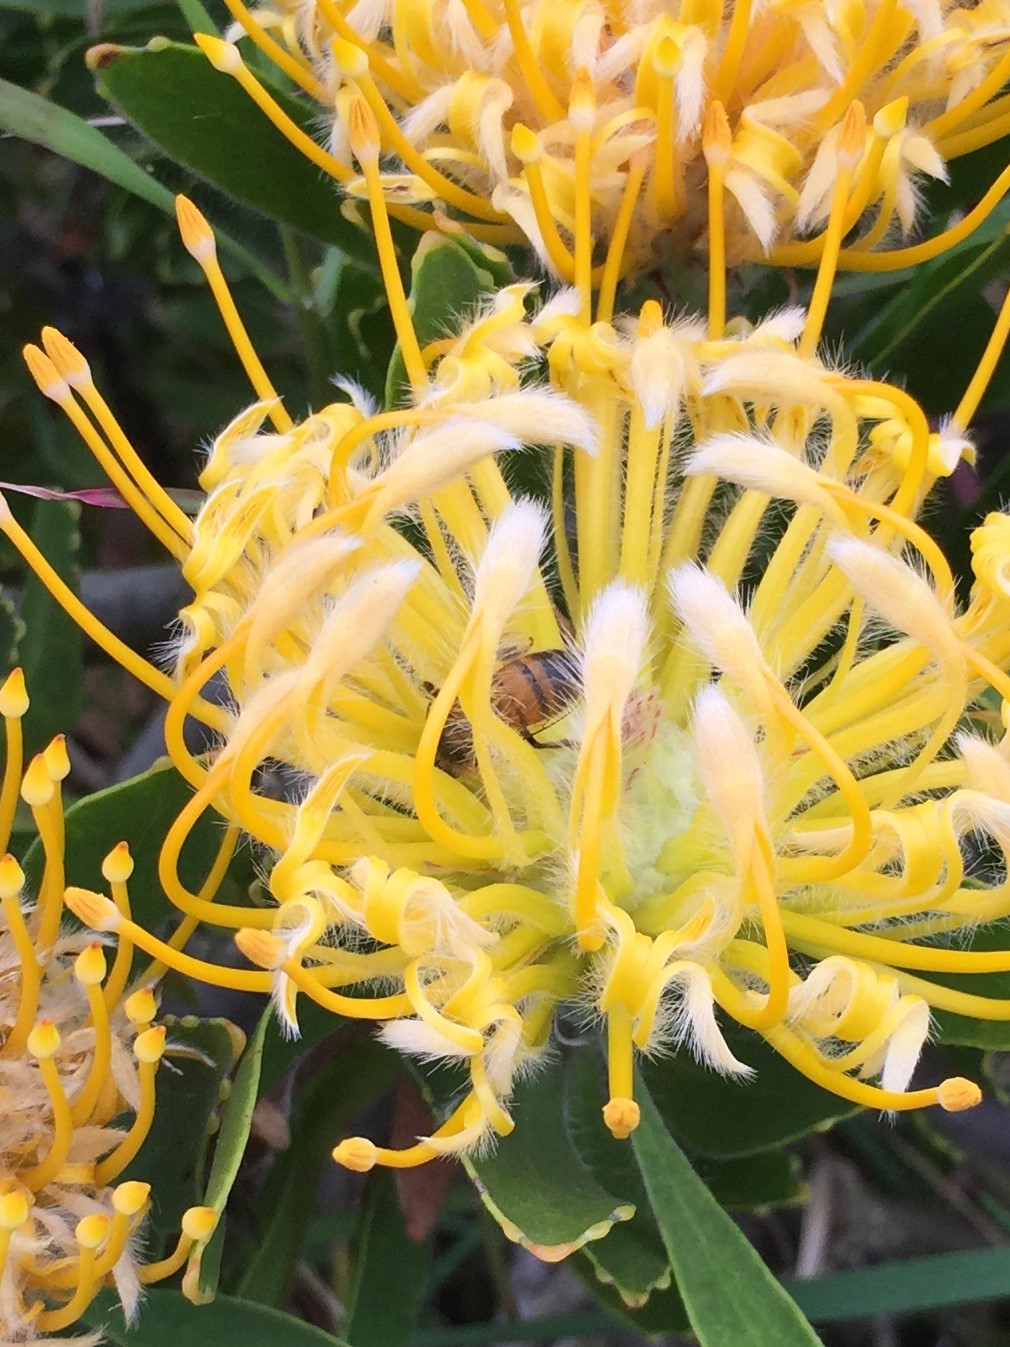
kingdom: Animalia
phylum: Arthropoda
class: Insecta
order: Hymenoptera
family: Apidae
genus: Apis
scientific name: Apis mellifera
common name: Honey bee
